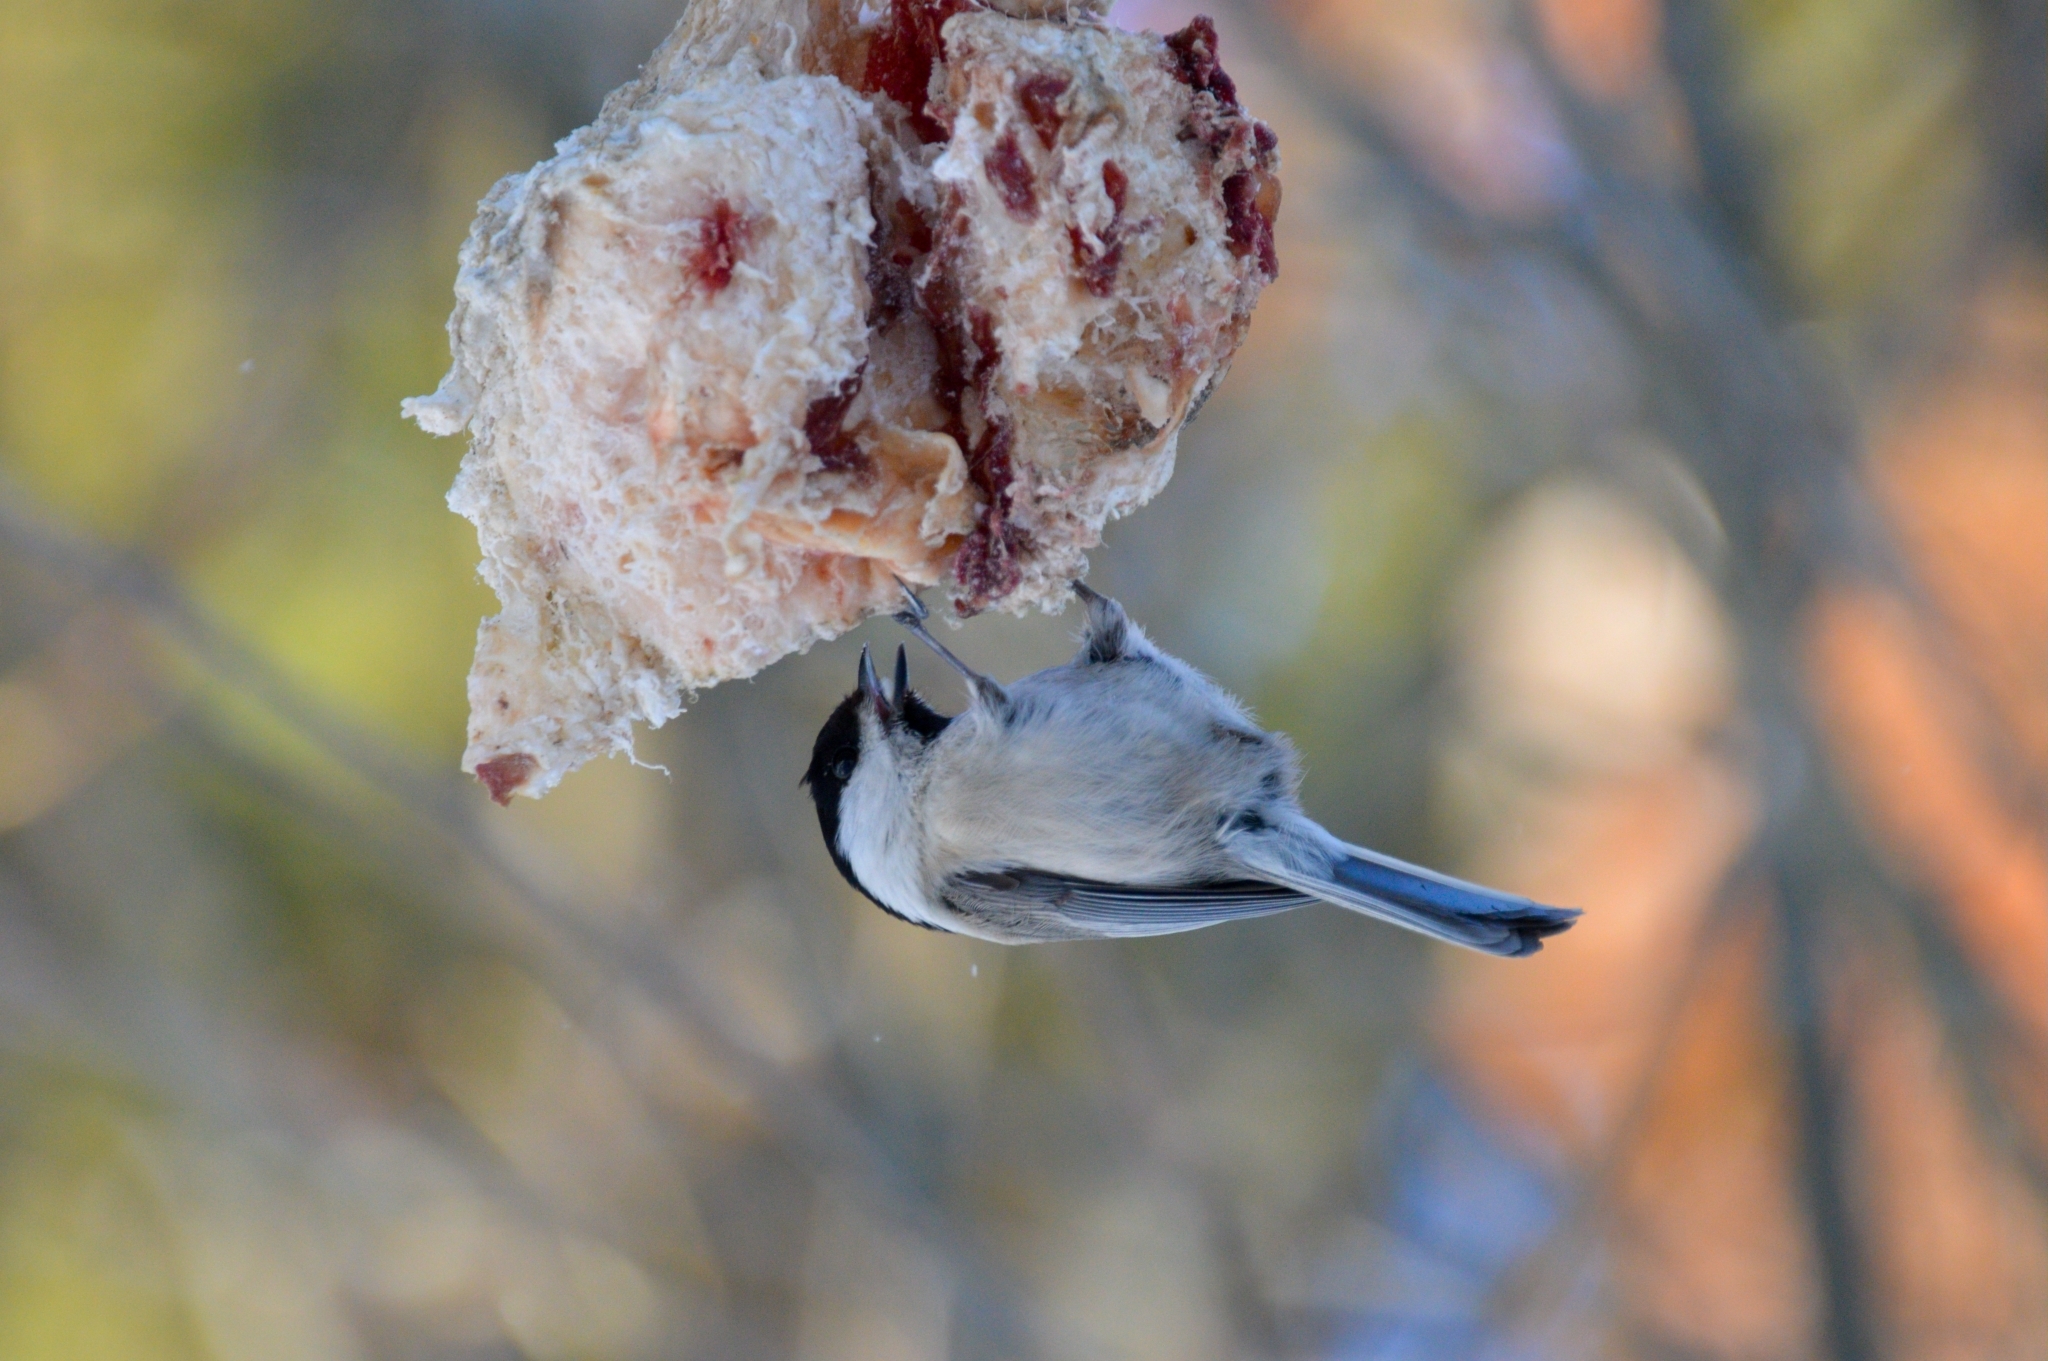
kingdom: Animalia
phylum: Chordata
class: Aves
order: Passeriformes
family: Paridae
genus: Poecile
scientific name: Poecile montanus
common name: Willow tit
